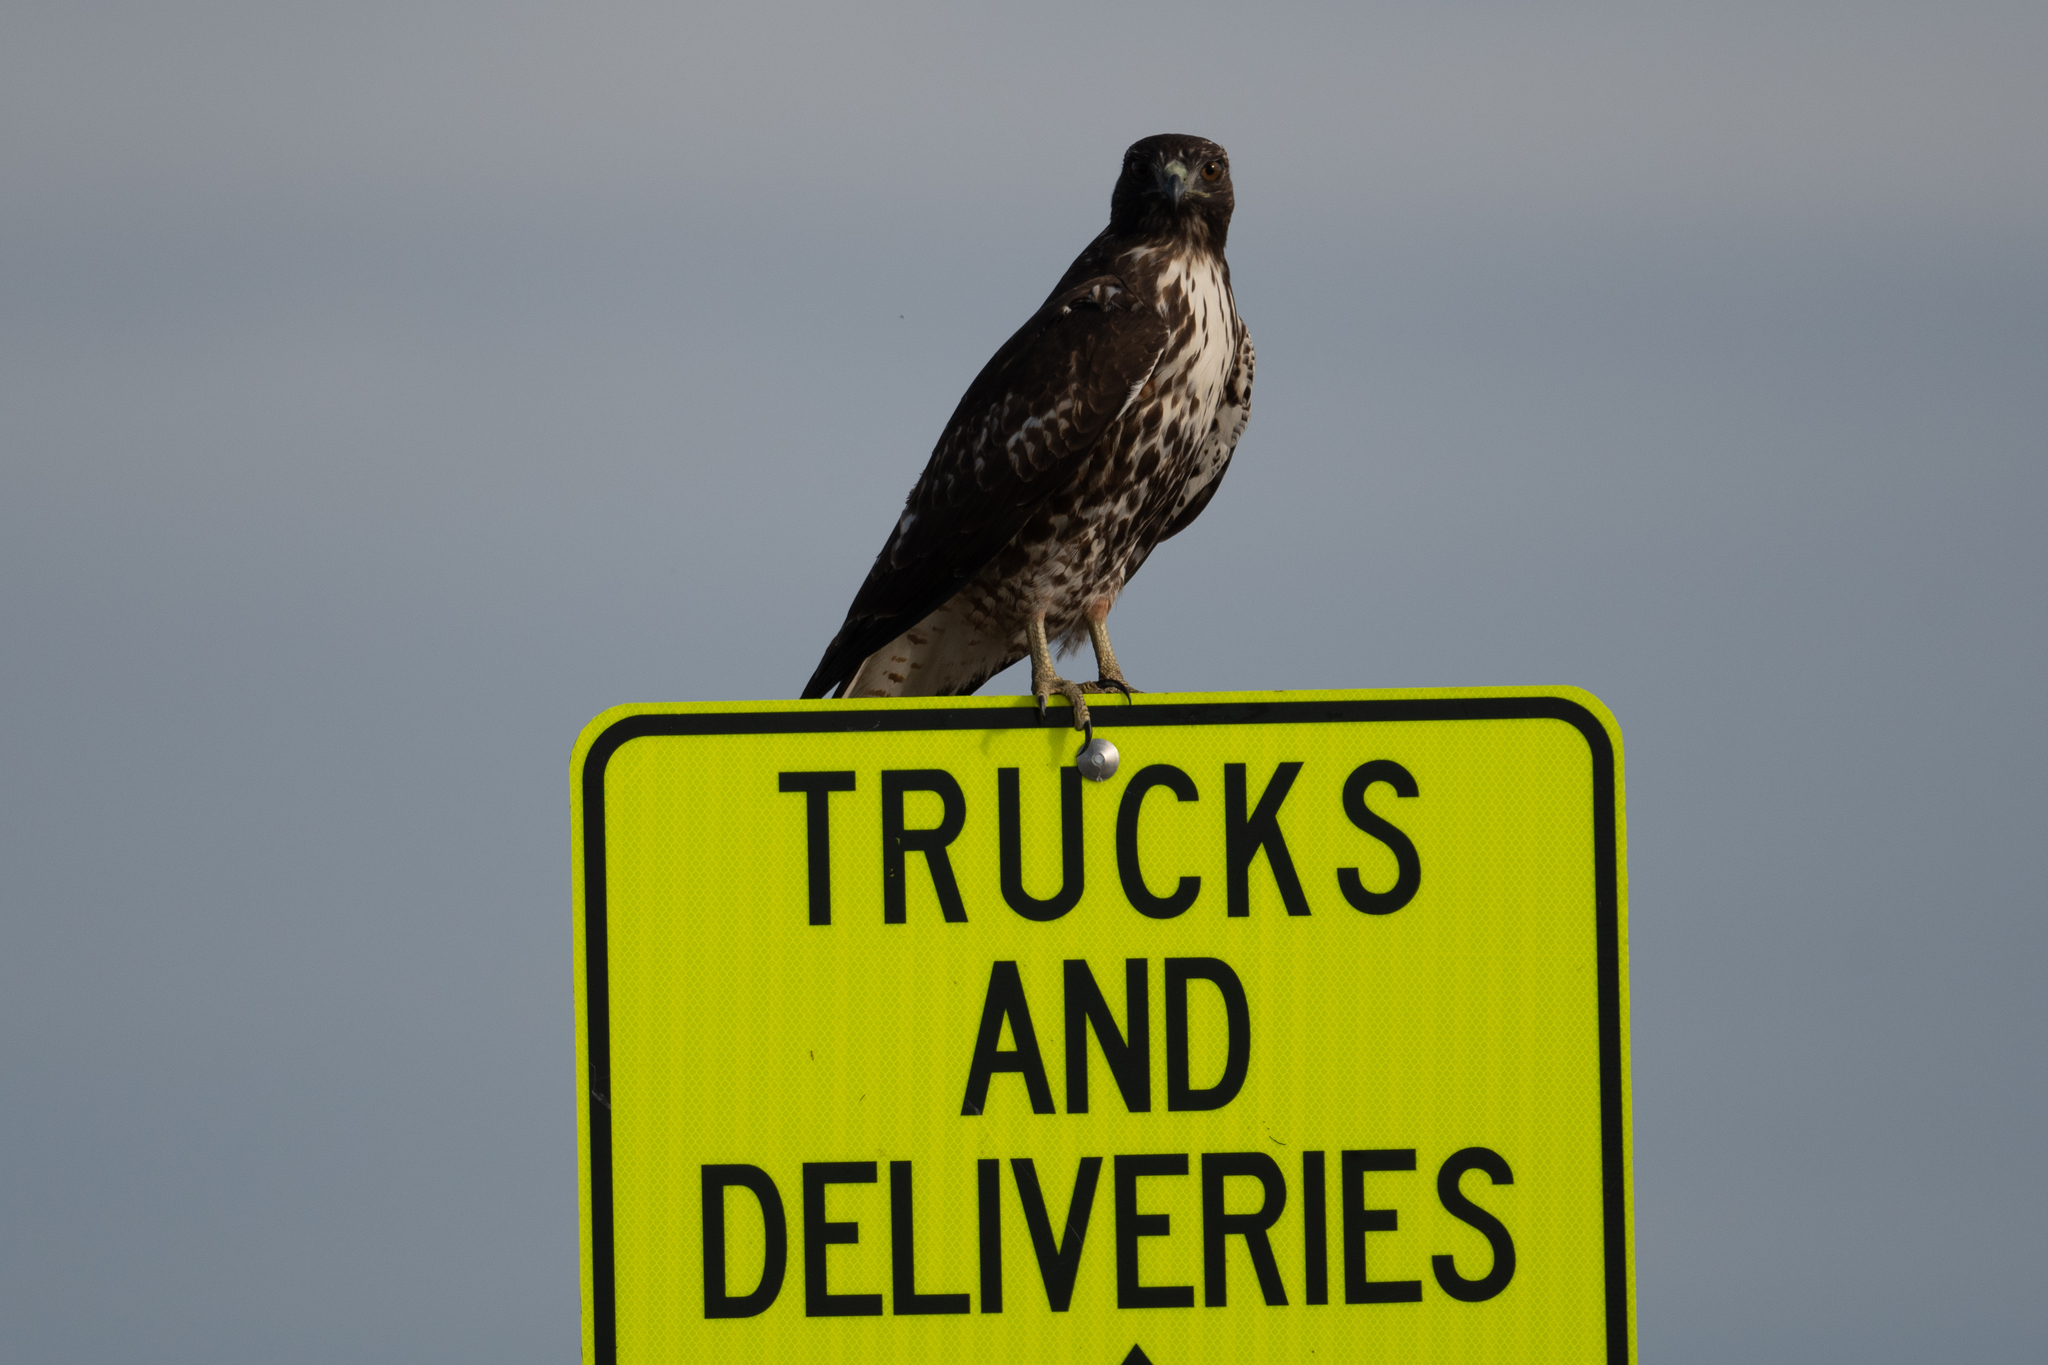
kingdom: Animalia
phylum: Chordata
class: Aves
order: Accipitriformes
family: Accipitridae
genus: Buteo
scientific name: Buteo jamaicensis
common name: Red-tailed hawk
